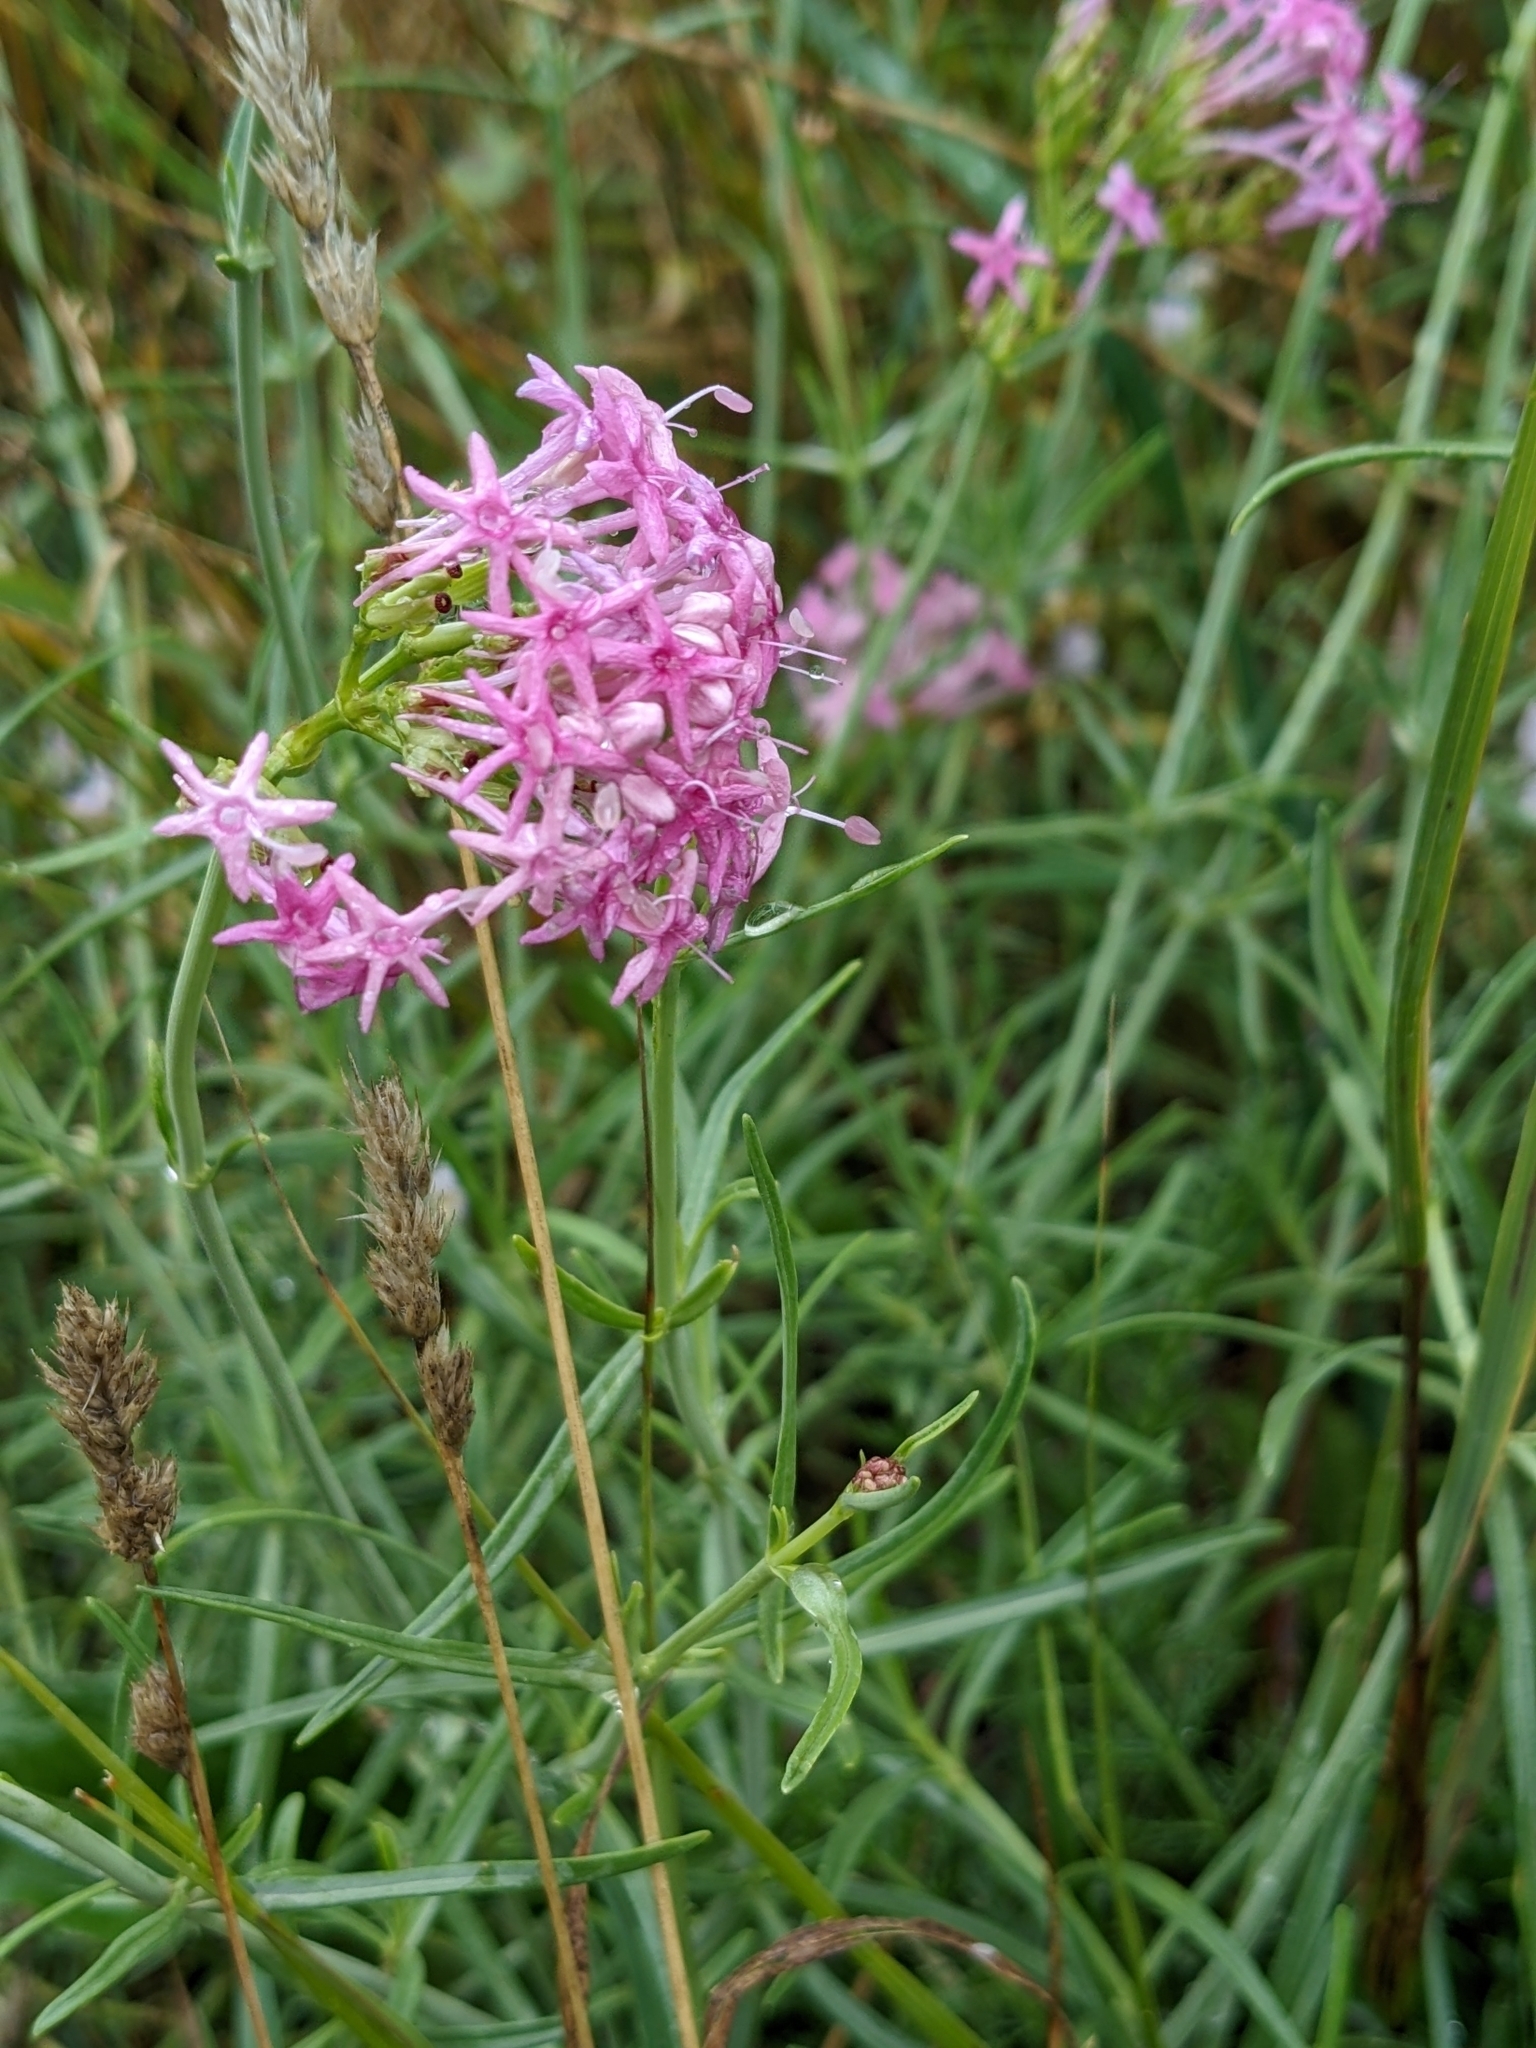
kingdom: Plantae
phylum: Tracheophyta
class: Magnoliopsida
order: Dipsacales
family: Caprifoliaceae
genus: Centranthus
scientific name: Centranthus angustifolius
